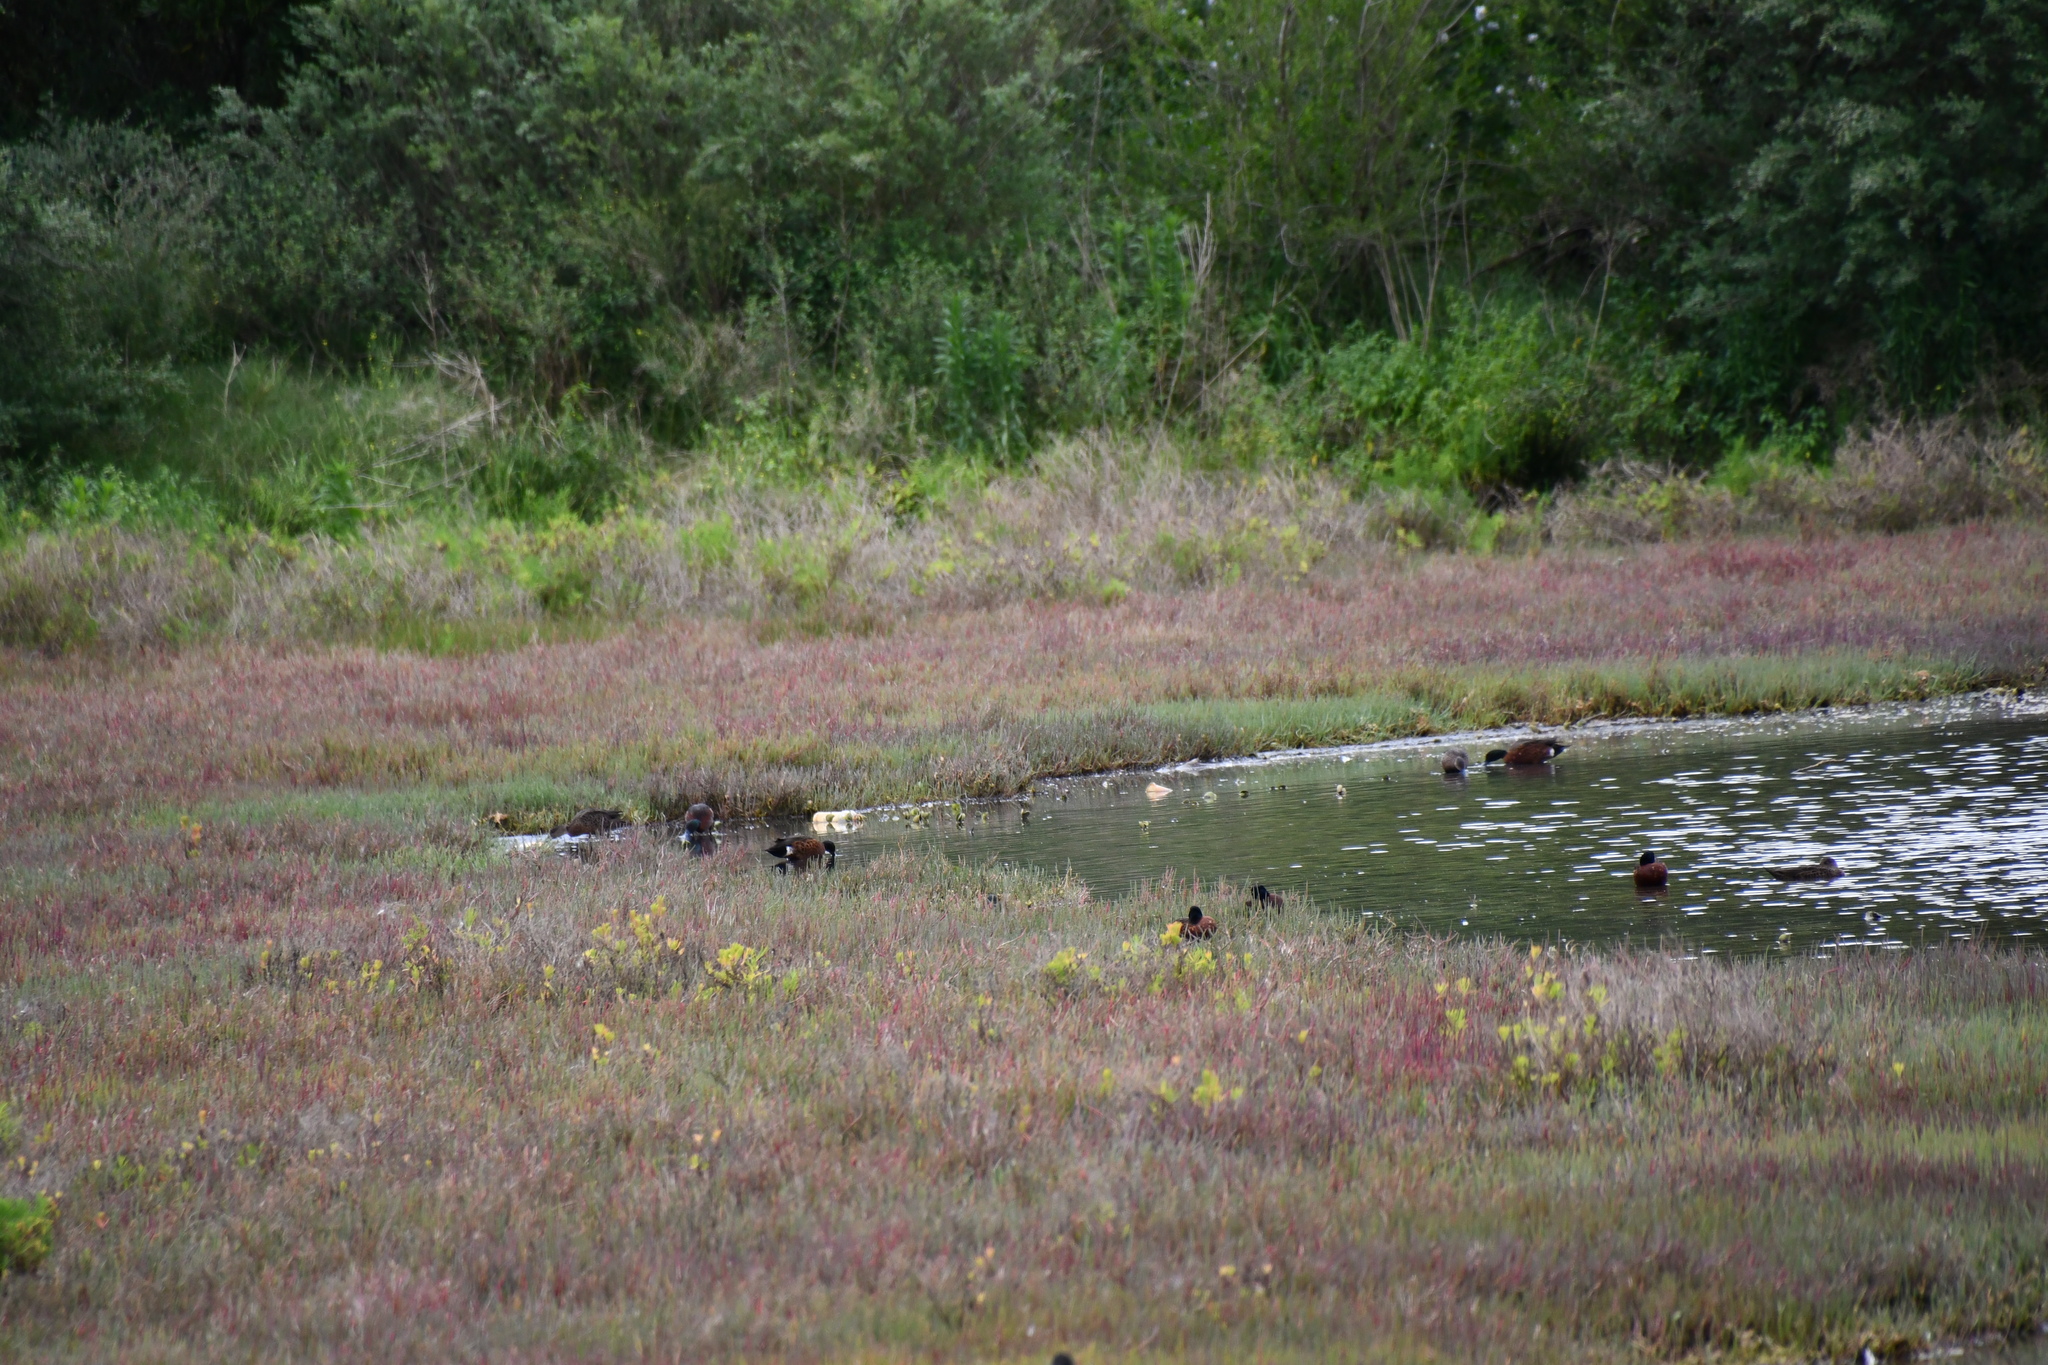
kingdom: Animalia
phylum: Chordata
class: Aves
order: Anseriformes
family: Anatidae
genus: Anas
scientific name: Anas castanea
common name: Chestnut teal
